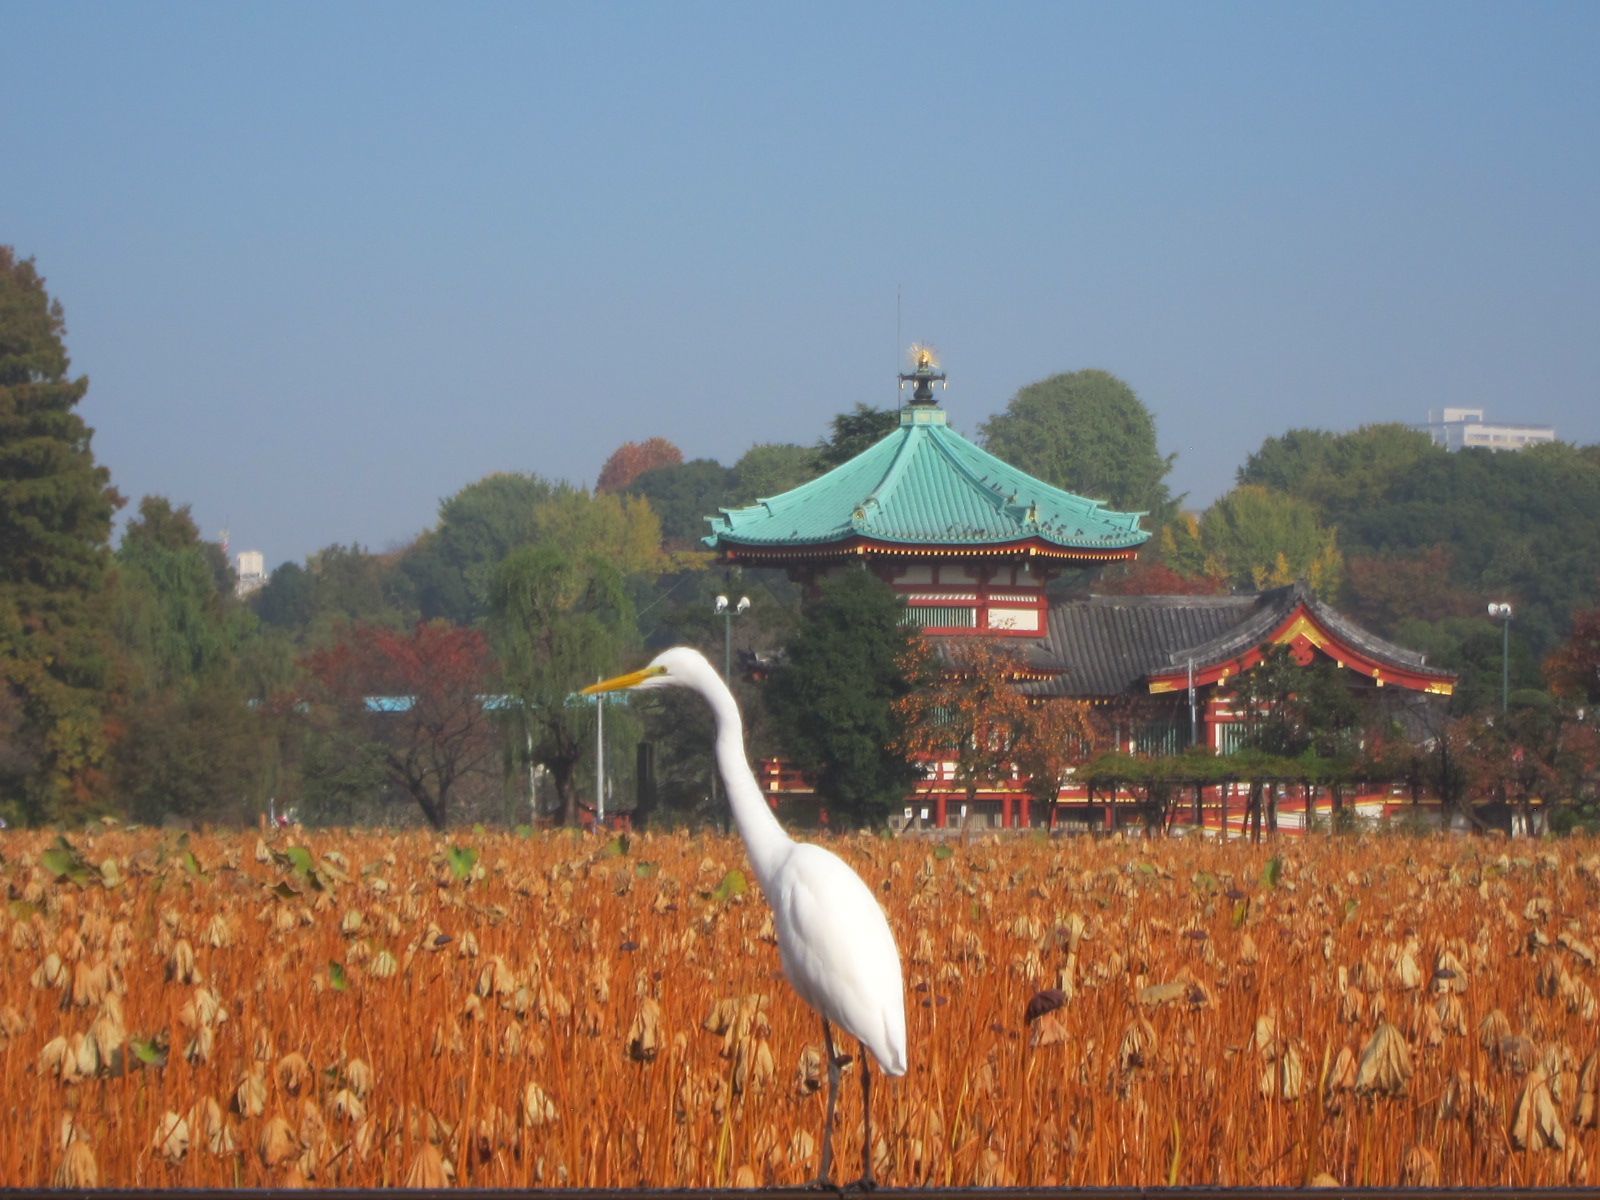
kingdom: Animalia
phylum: Chordata
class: Aves
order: Pelecaniformes
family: Ardeidae
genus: Ardea
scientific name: Ardea modesta
